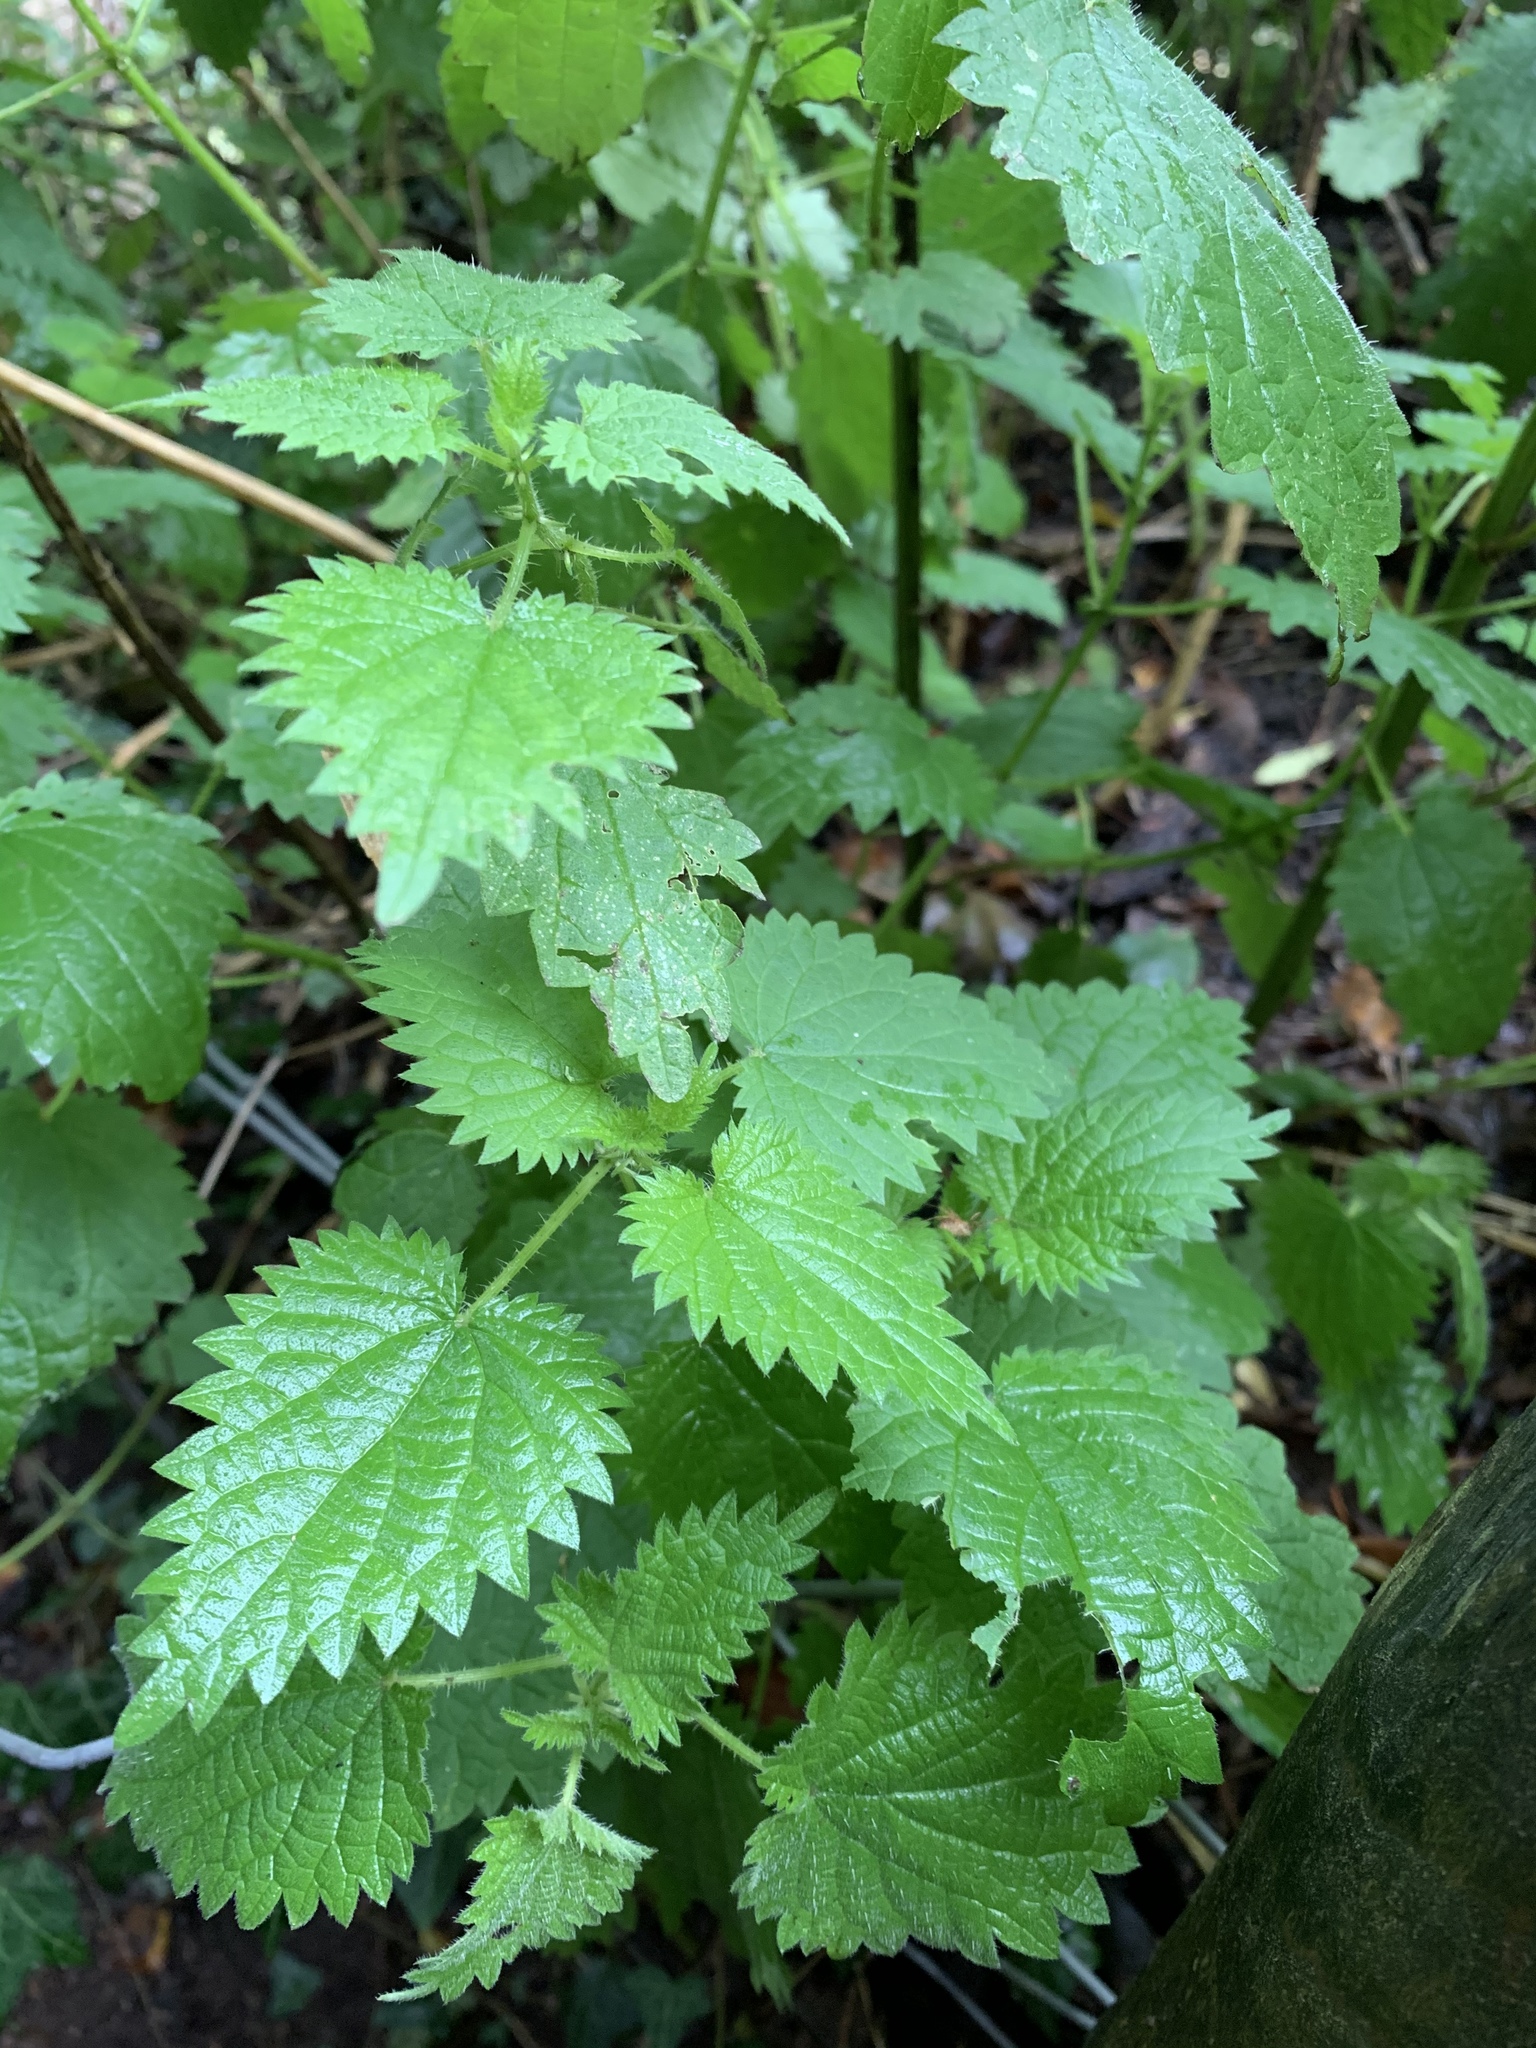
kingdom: Plantae
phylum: Tracheophyta
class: Magnoliopsida
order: Rosales
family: Urticaceae
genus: Urtica
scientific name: Urtica dioica
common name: Common nettle
